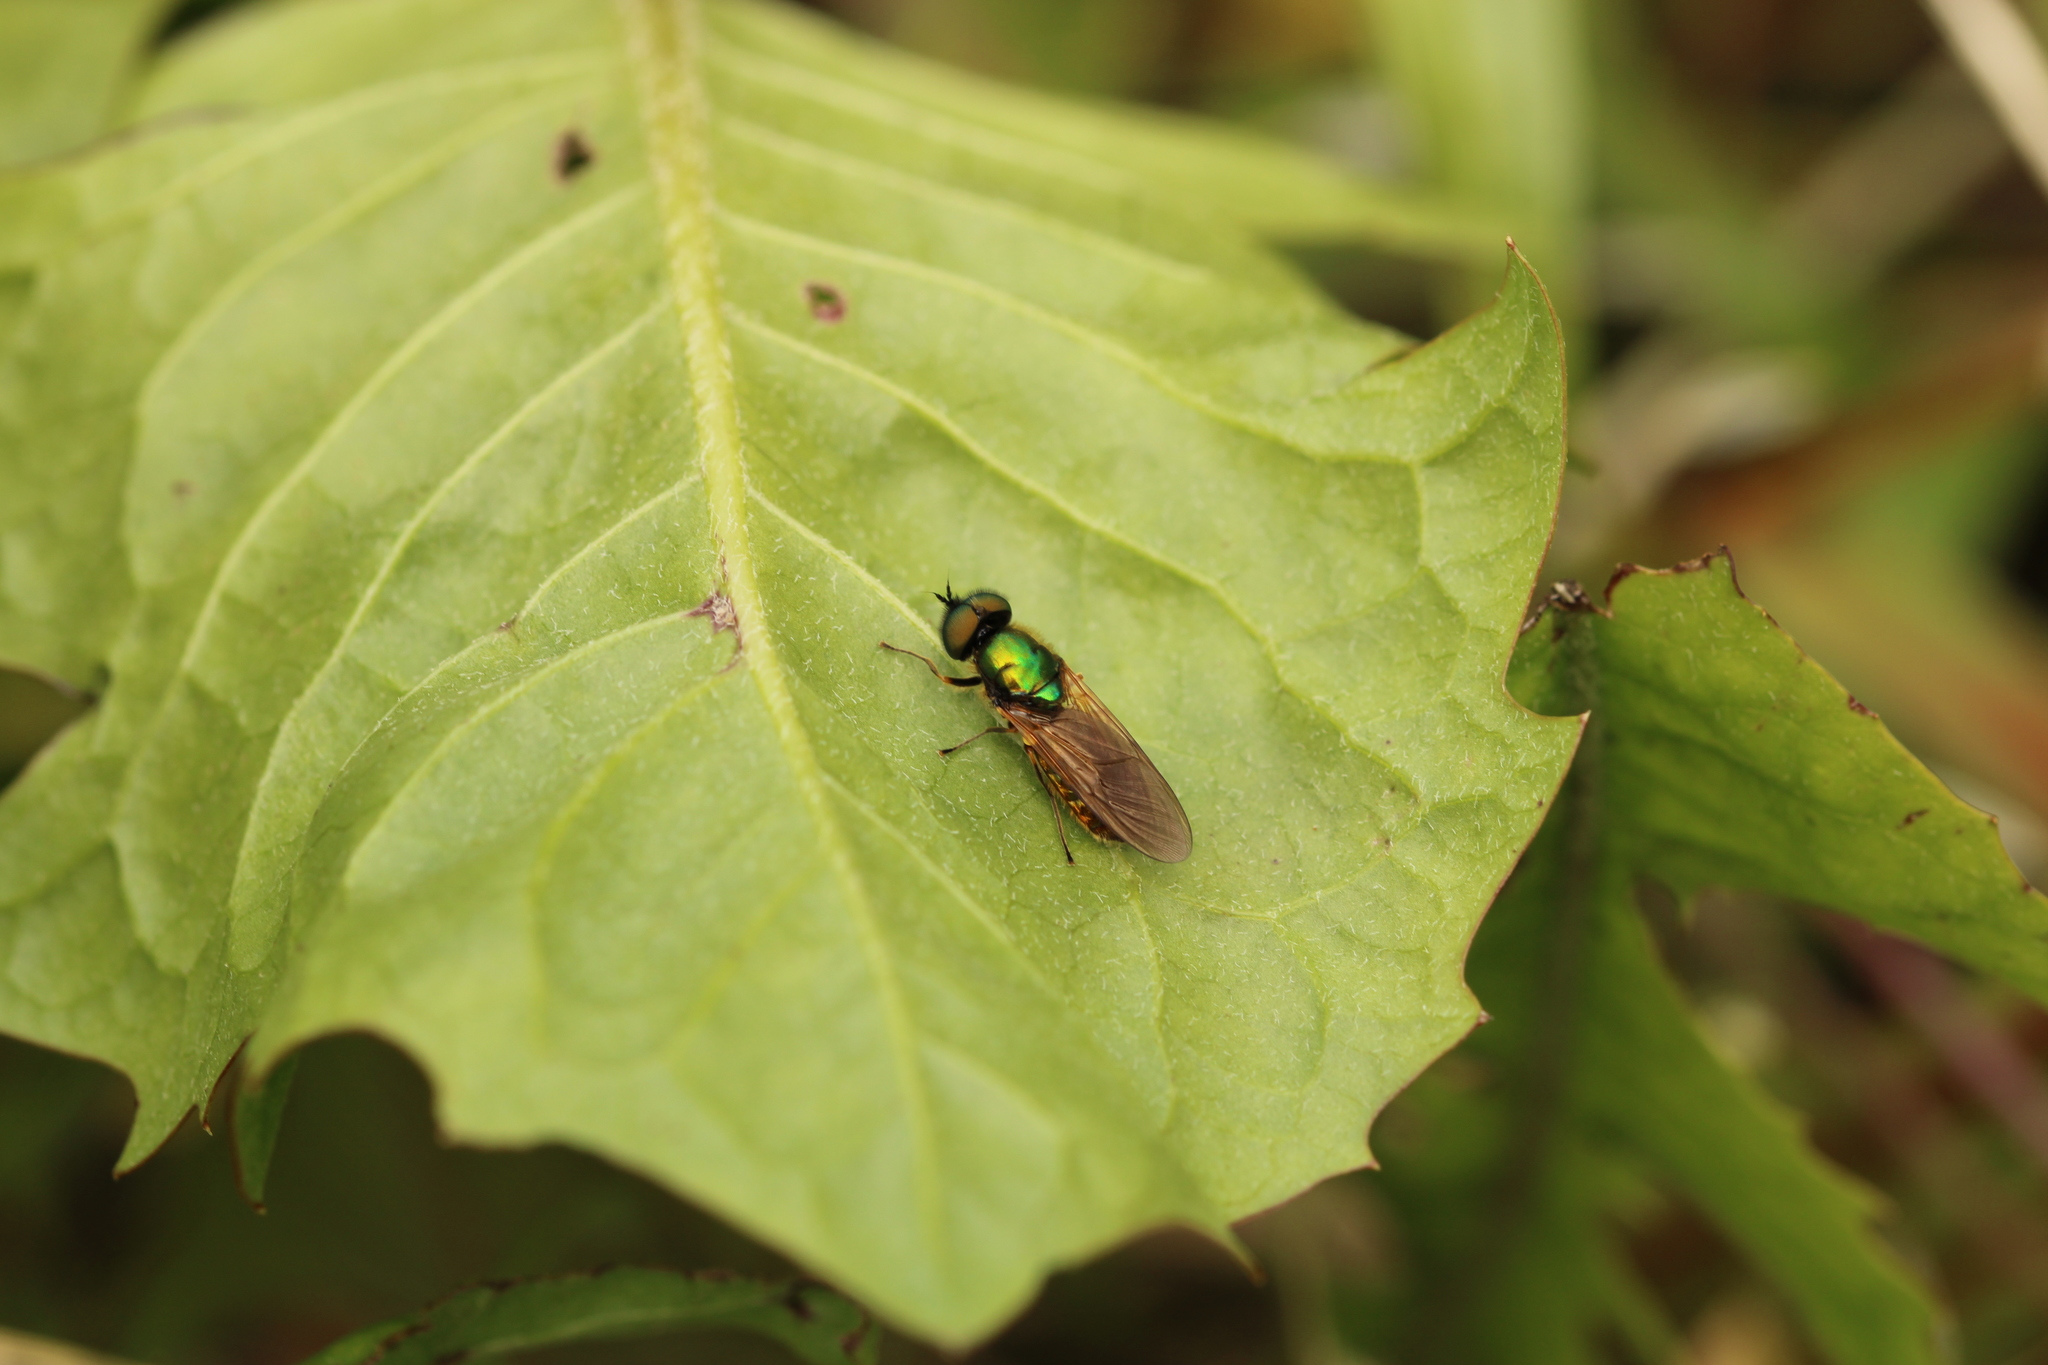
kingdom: Animalia
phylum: Arthropoda
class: Insecta
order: Diptera
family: Stratiomyidae
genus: Chloromyia
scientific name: Chloromyia formosa
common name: Soldier fly
